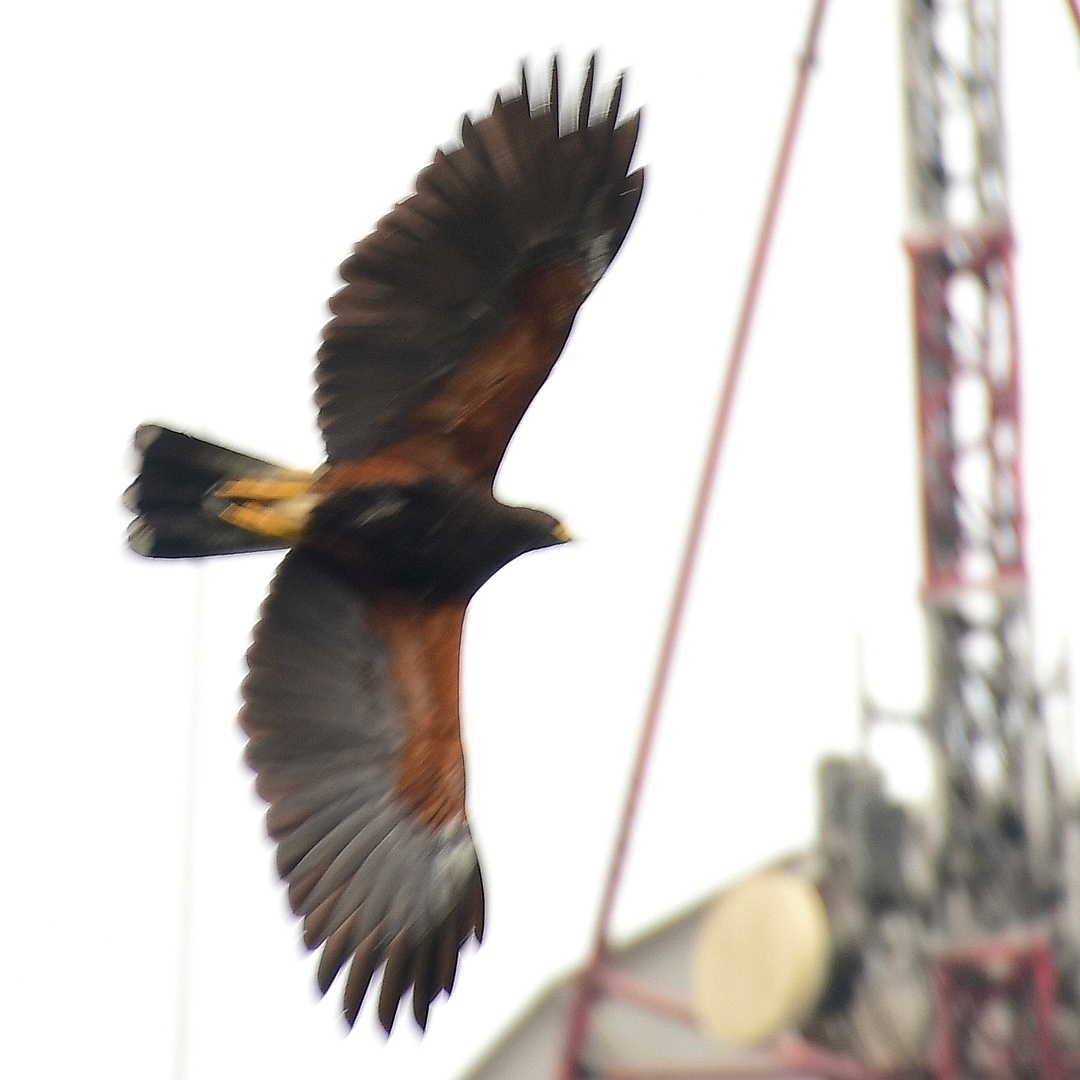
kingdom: Animalia
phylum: Chordata
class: Aves
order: Accipitriformes
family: Accipitridae
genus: Parabuteo
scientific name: Parabuteo unicinctus
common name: Harris's hawk
